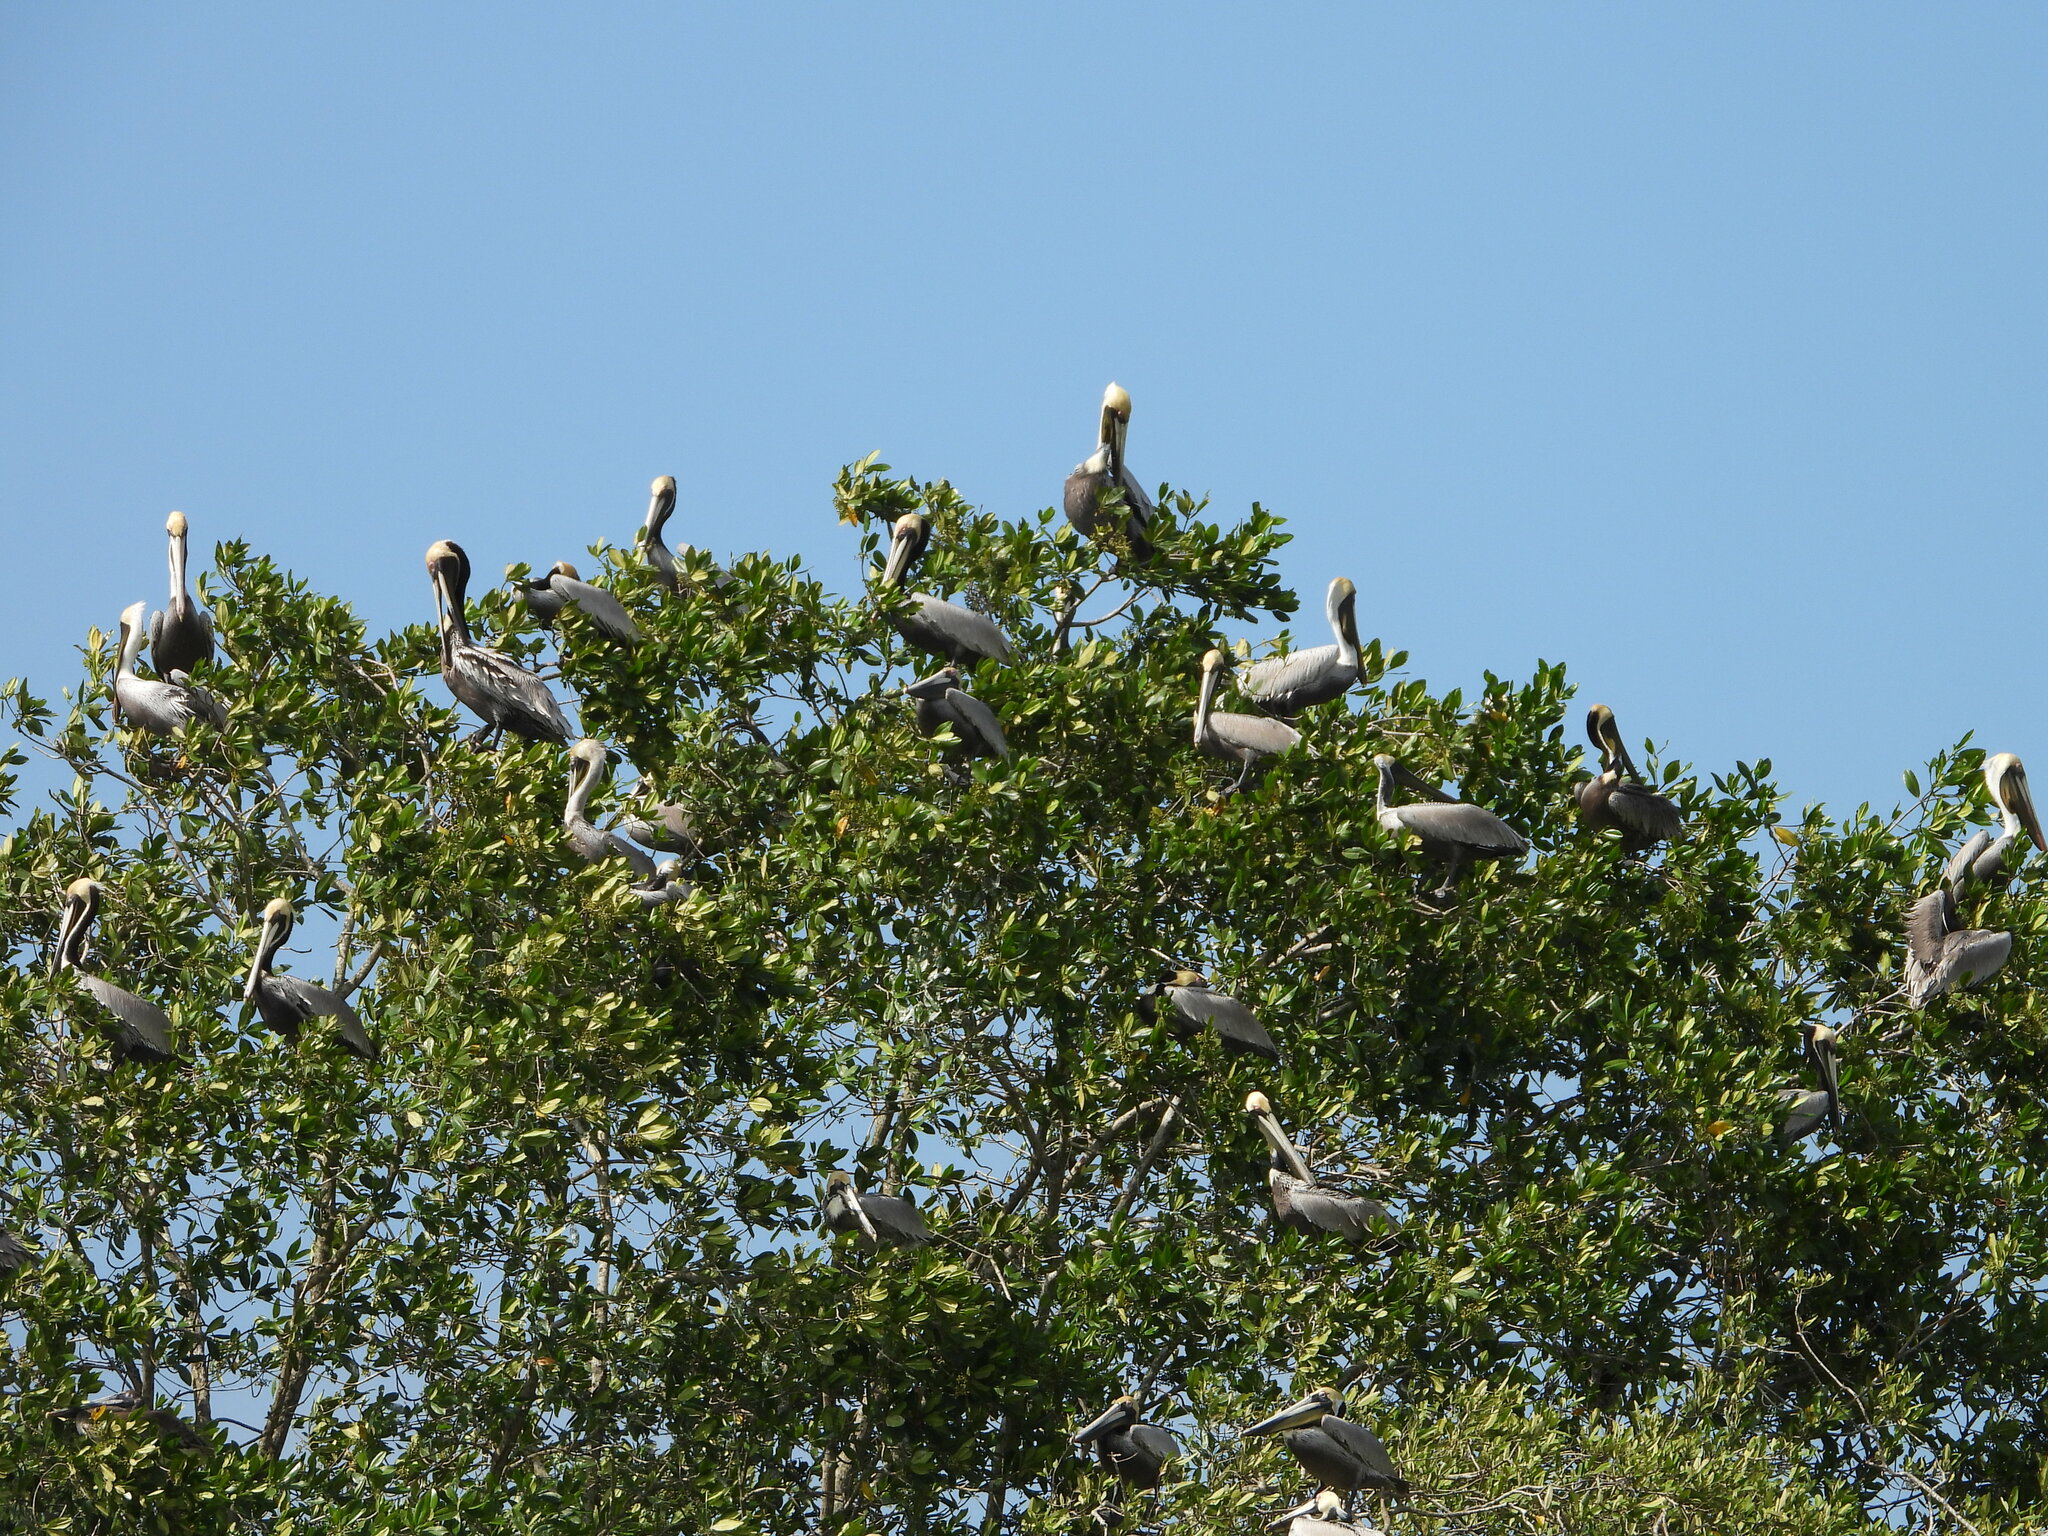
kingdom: Animalia
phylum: Chordata
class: Aves
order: Pelecaniformes
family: Pelecanidae
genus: Pelecanus
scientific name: Pelecanus occidentalis
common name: Brown pelican
